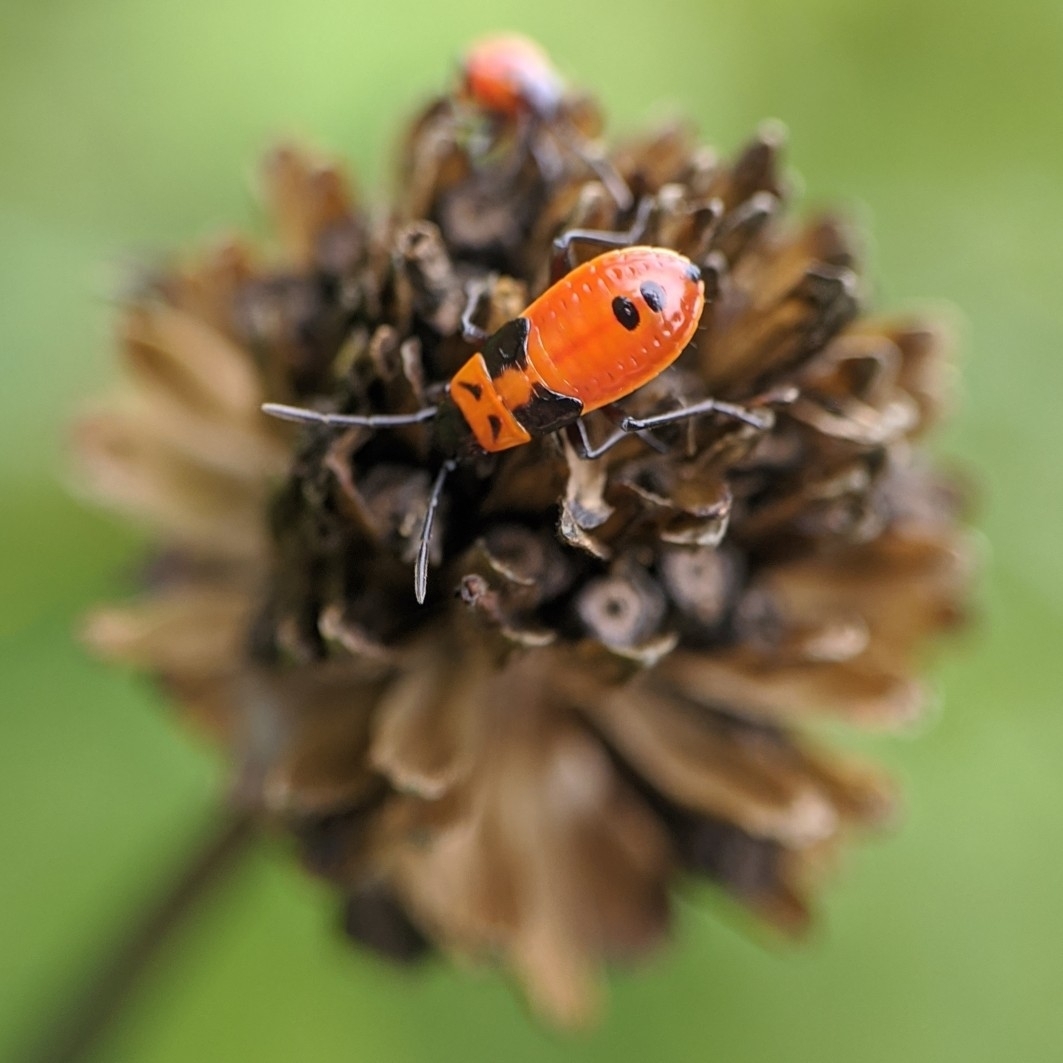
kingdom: Animalia
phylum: Arthropoda
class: Insecta
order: Hemiptera
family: Lygaeidae
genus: Lygaeus
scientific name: Lygaeus turcicus
